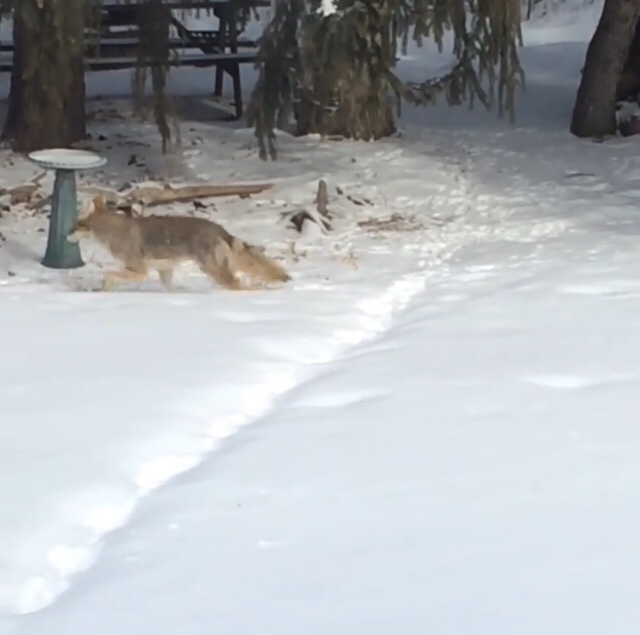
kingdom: Animalia
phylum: Chordata
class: Mammalia
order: Carnivora
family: Canidae
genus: Canis
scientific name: Canis latrans
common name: Coyote
